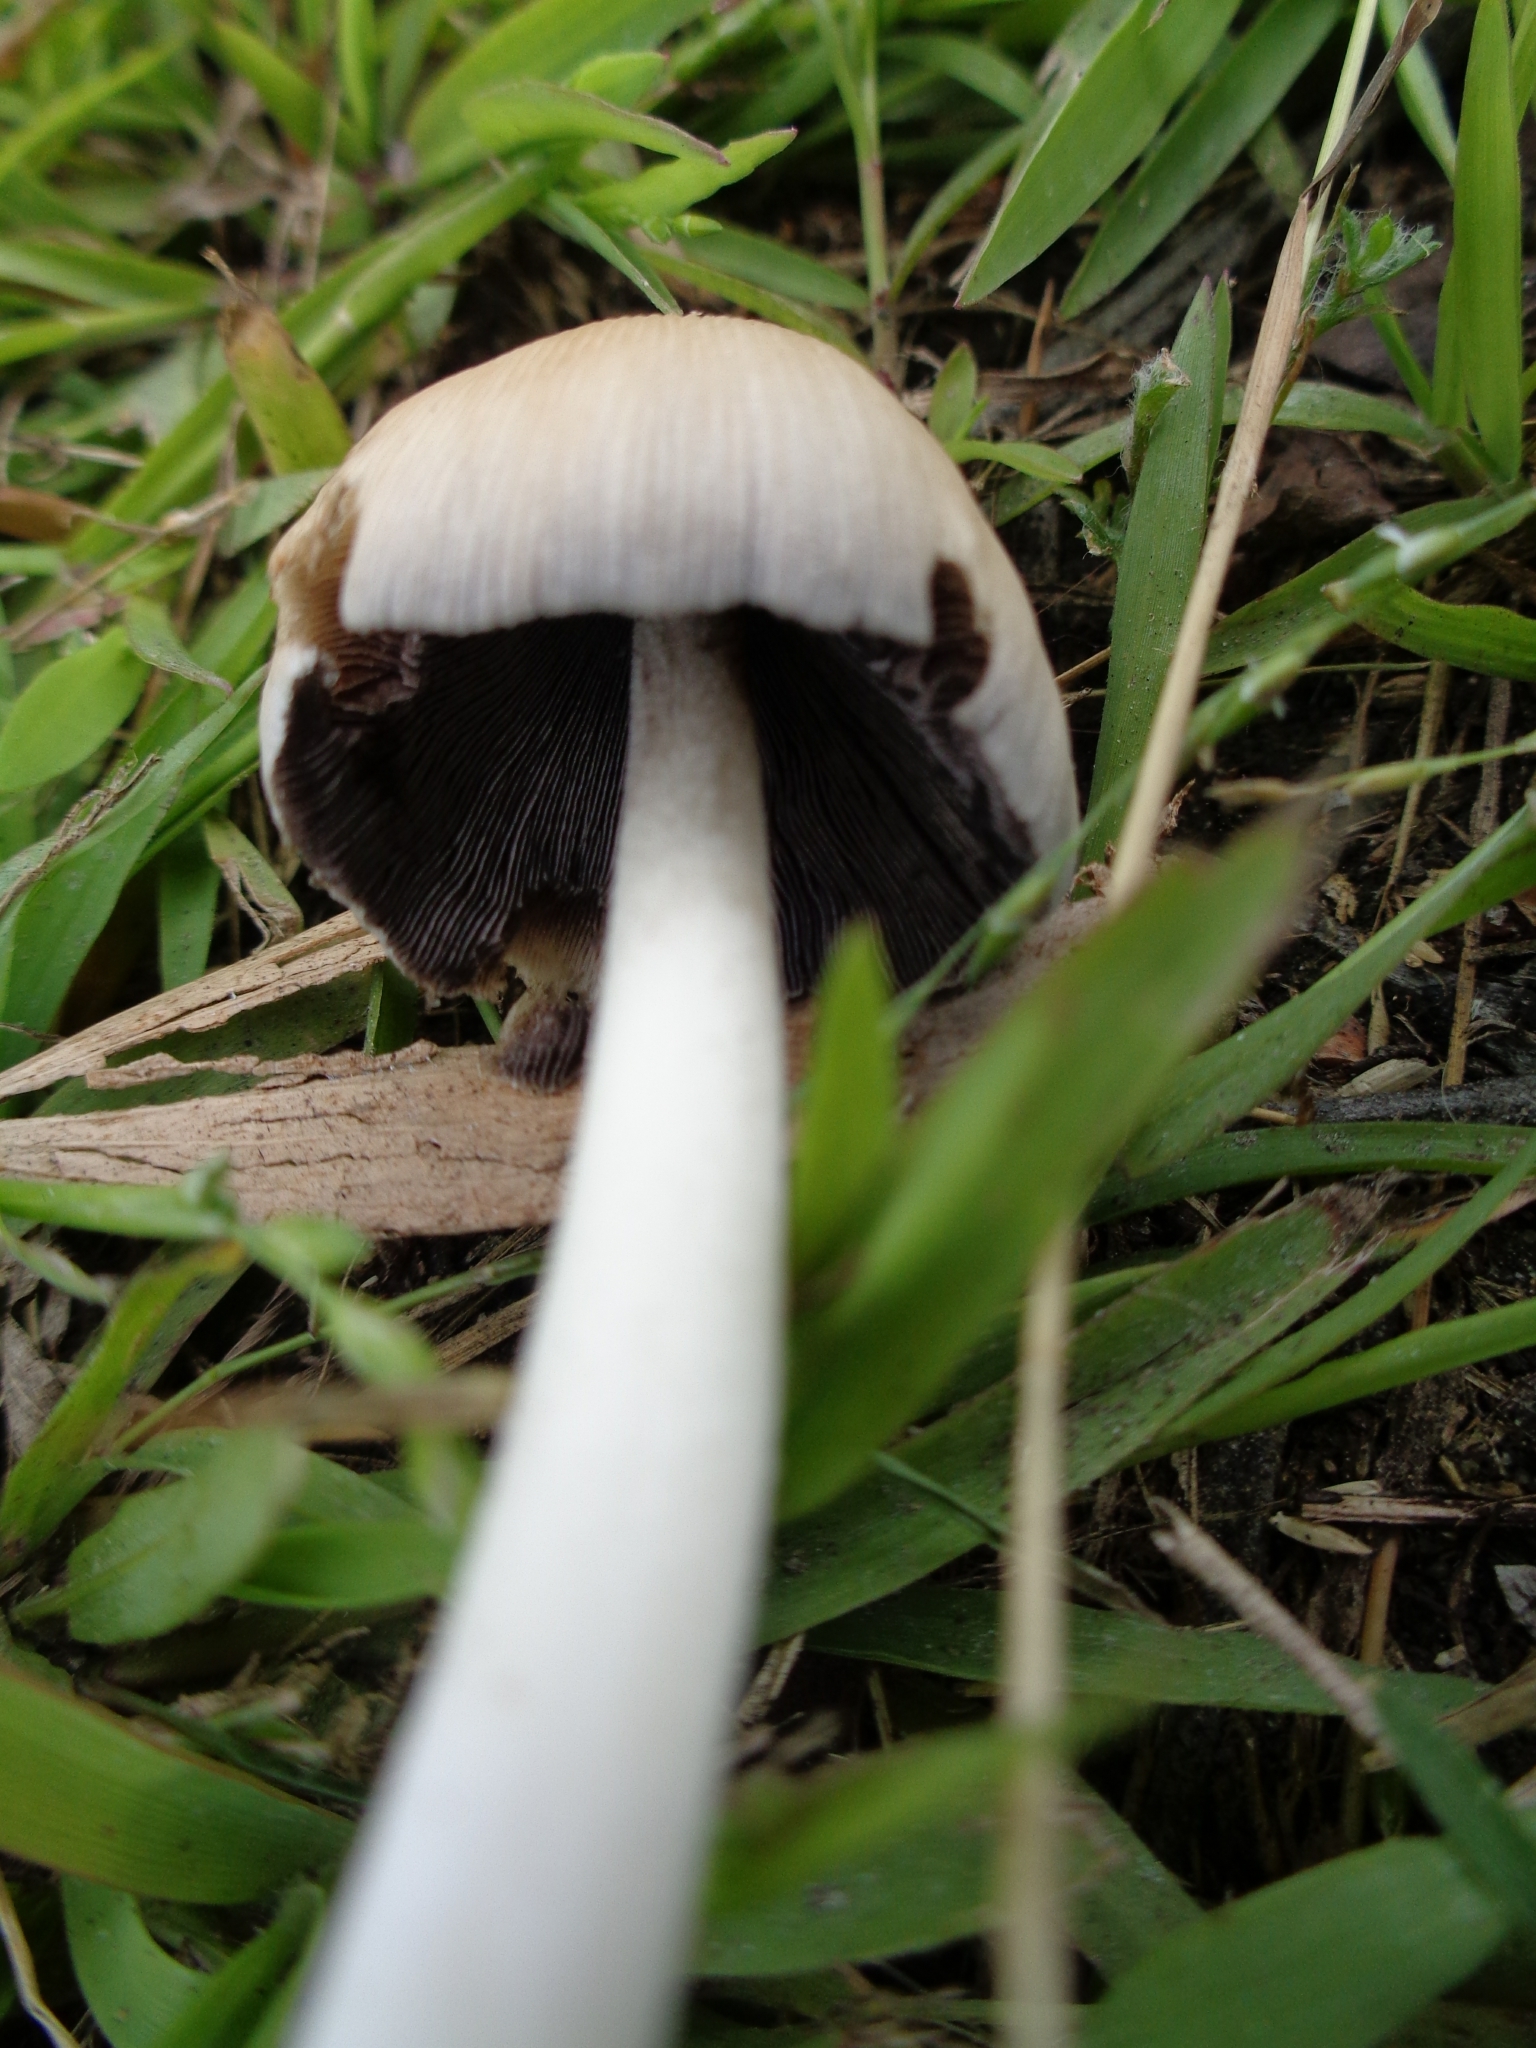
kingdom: Fungi
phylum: Basidiomycota
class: Agaricomycetes
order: Agaricales
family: Psathyrellaceae
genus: Coprinellus
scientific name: Coprinellus micaceus
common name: Glistening ink-cap
